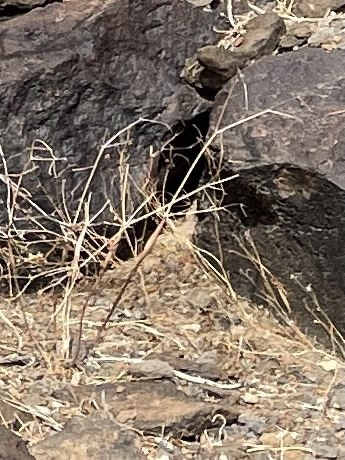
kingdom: Plantae
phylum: Tracheophyta
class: Magnoliopsida
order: Caryophyllales
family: Polygonaceae
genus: Eriogonum
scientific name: Eriogonum inflatum
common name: Desert trumpet
